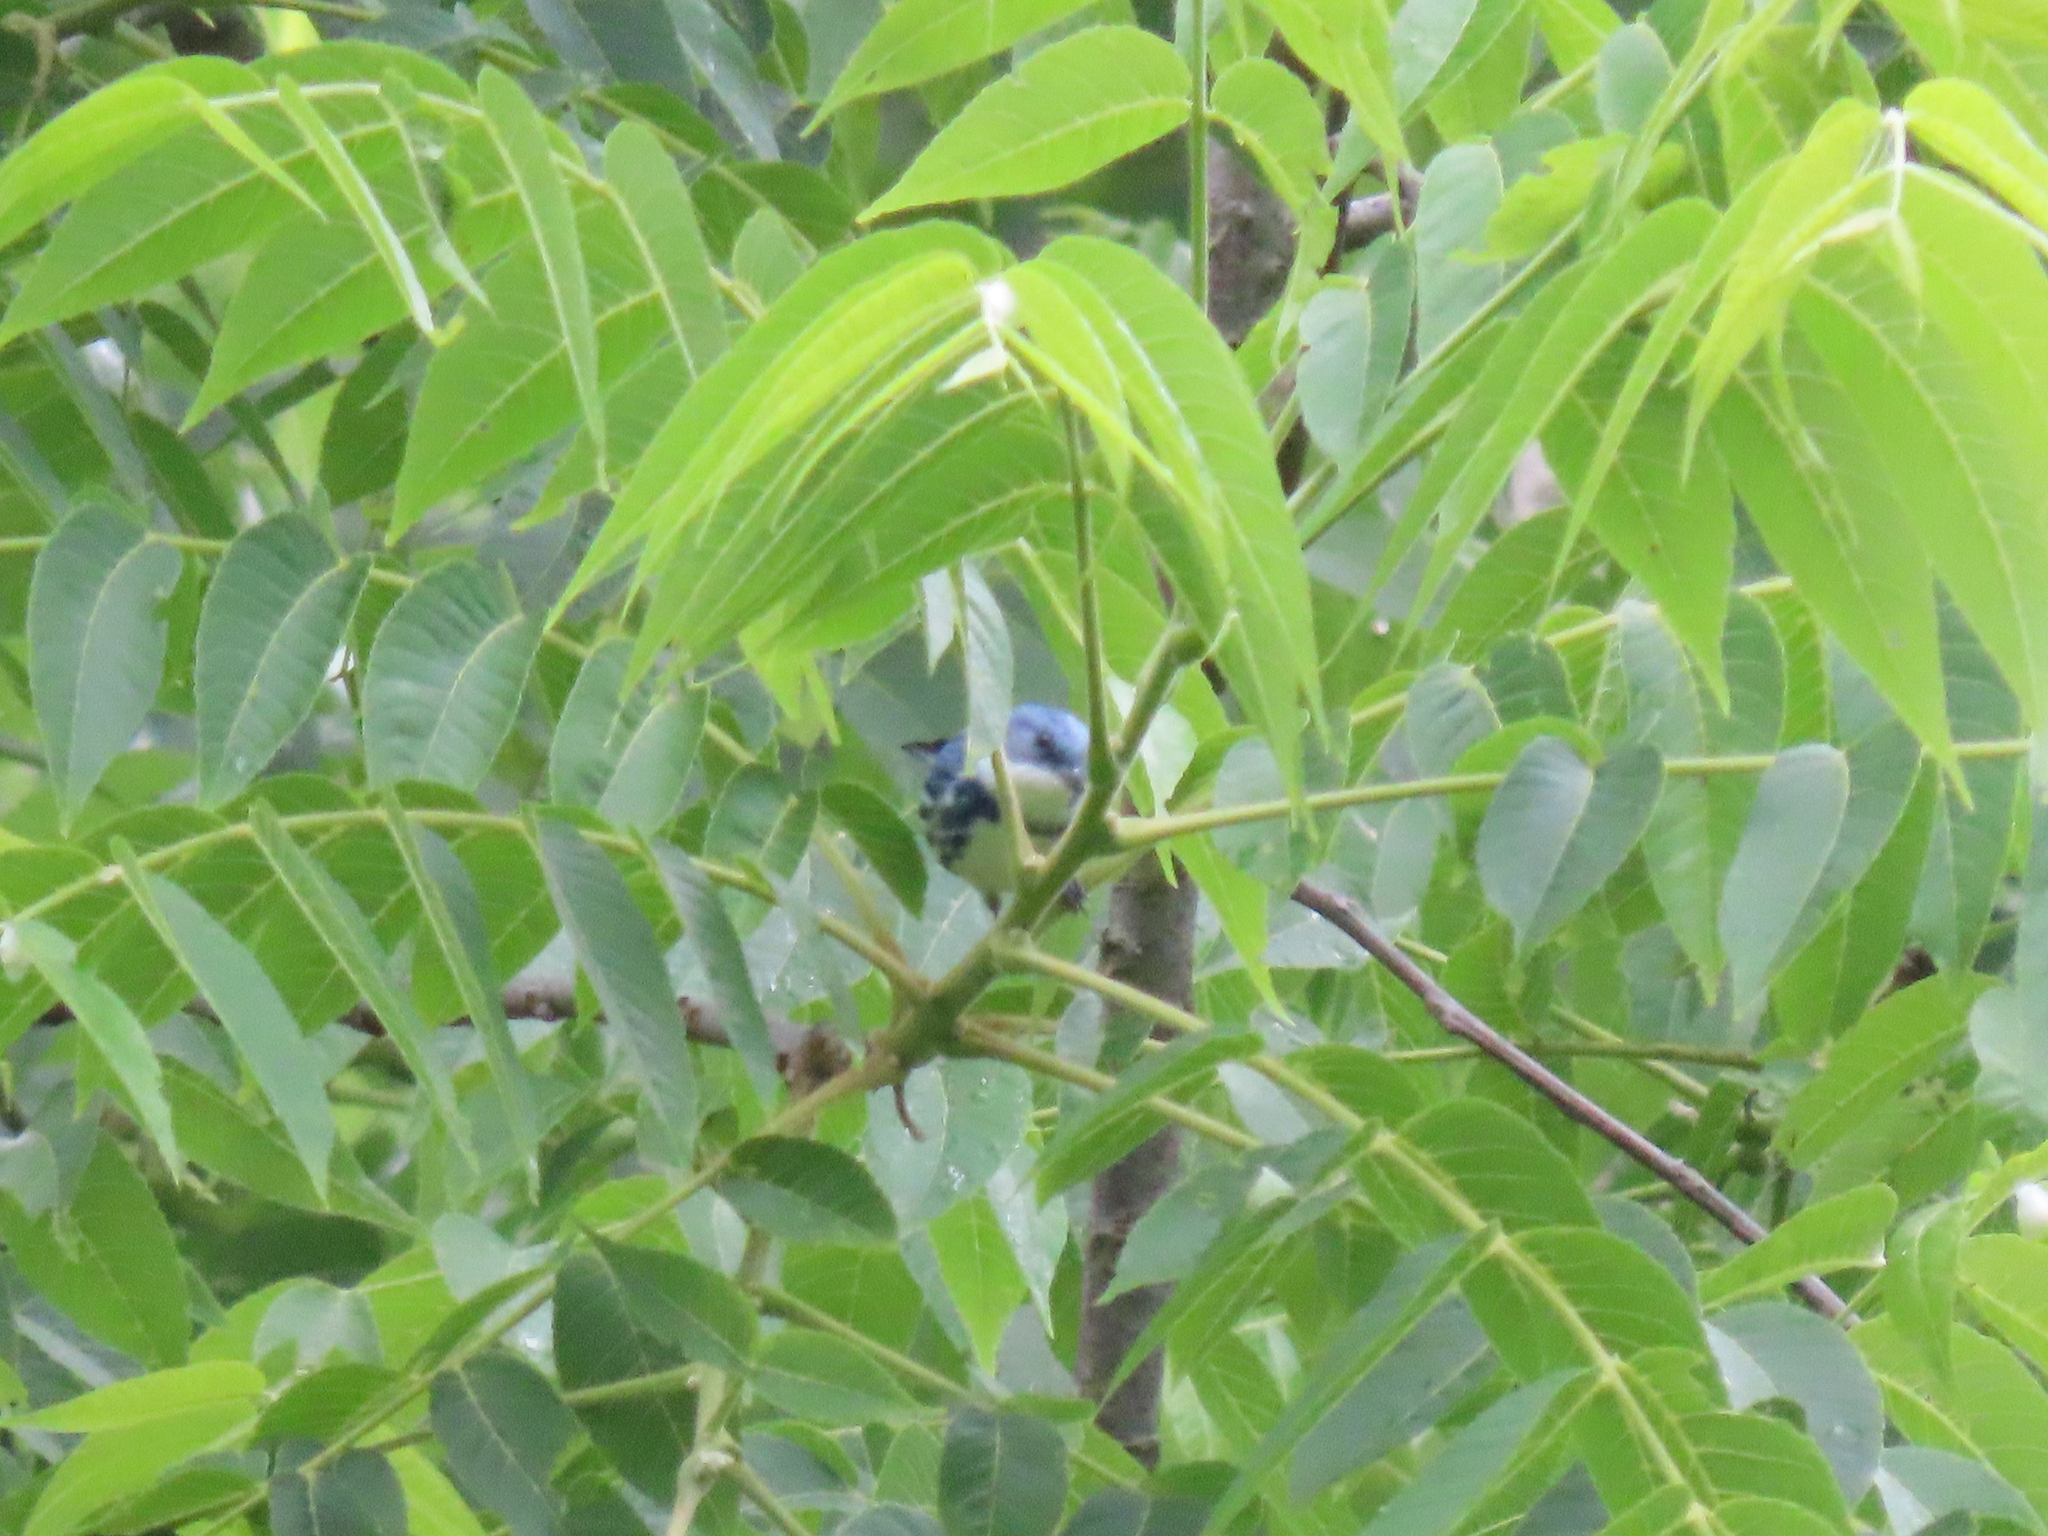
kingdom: Animalia
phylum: Chordata
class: Aves
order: Passeriformes
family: Parulidae
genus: Setophaga
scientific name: Setophaga cerulea
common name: Cerulean warbler
